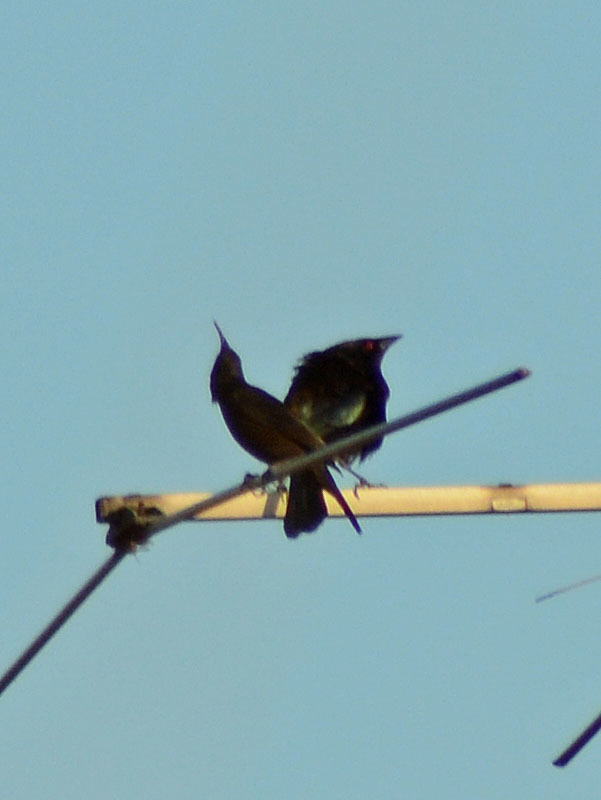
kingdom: Animalia
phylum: Chordata
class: Aves
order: Passeriformes
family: Icteridae
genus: Molothrus
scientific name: Molothrus aeneus
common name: Bronzed cowbird
